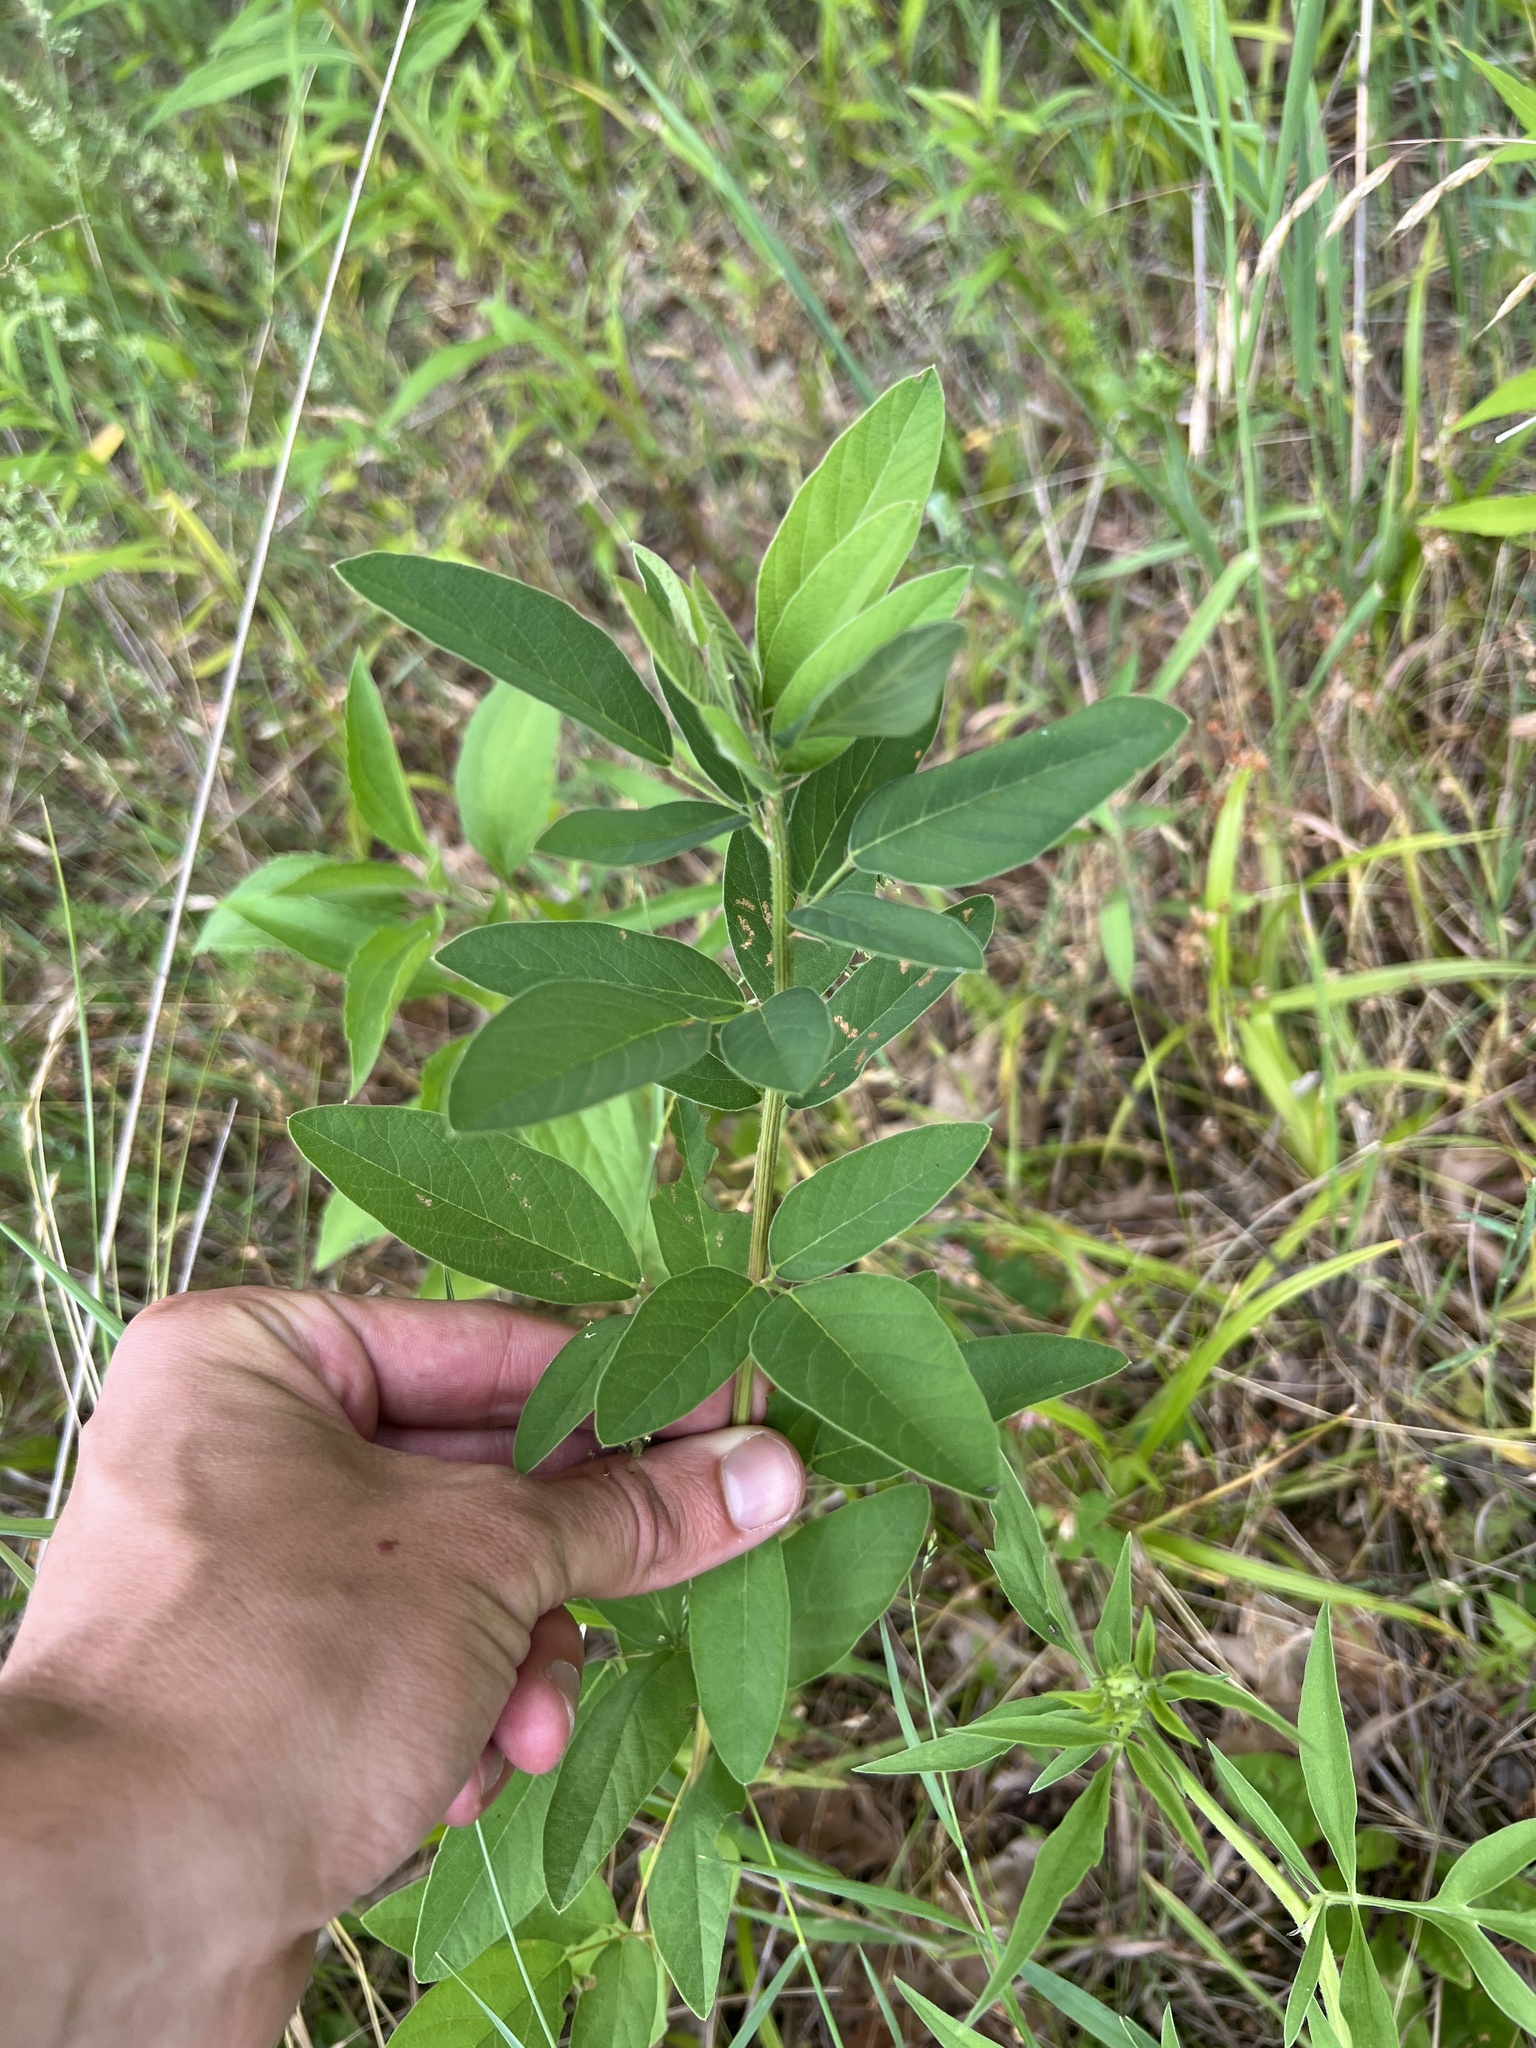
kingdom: Plantae
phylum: Tracheophyta
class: Magnoliopsida
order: Fabales
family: Fabaceae
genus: Desmodium
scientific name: Desmodium canadense
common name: Canada tick-trefoil
